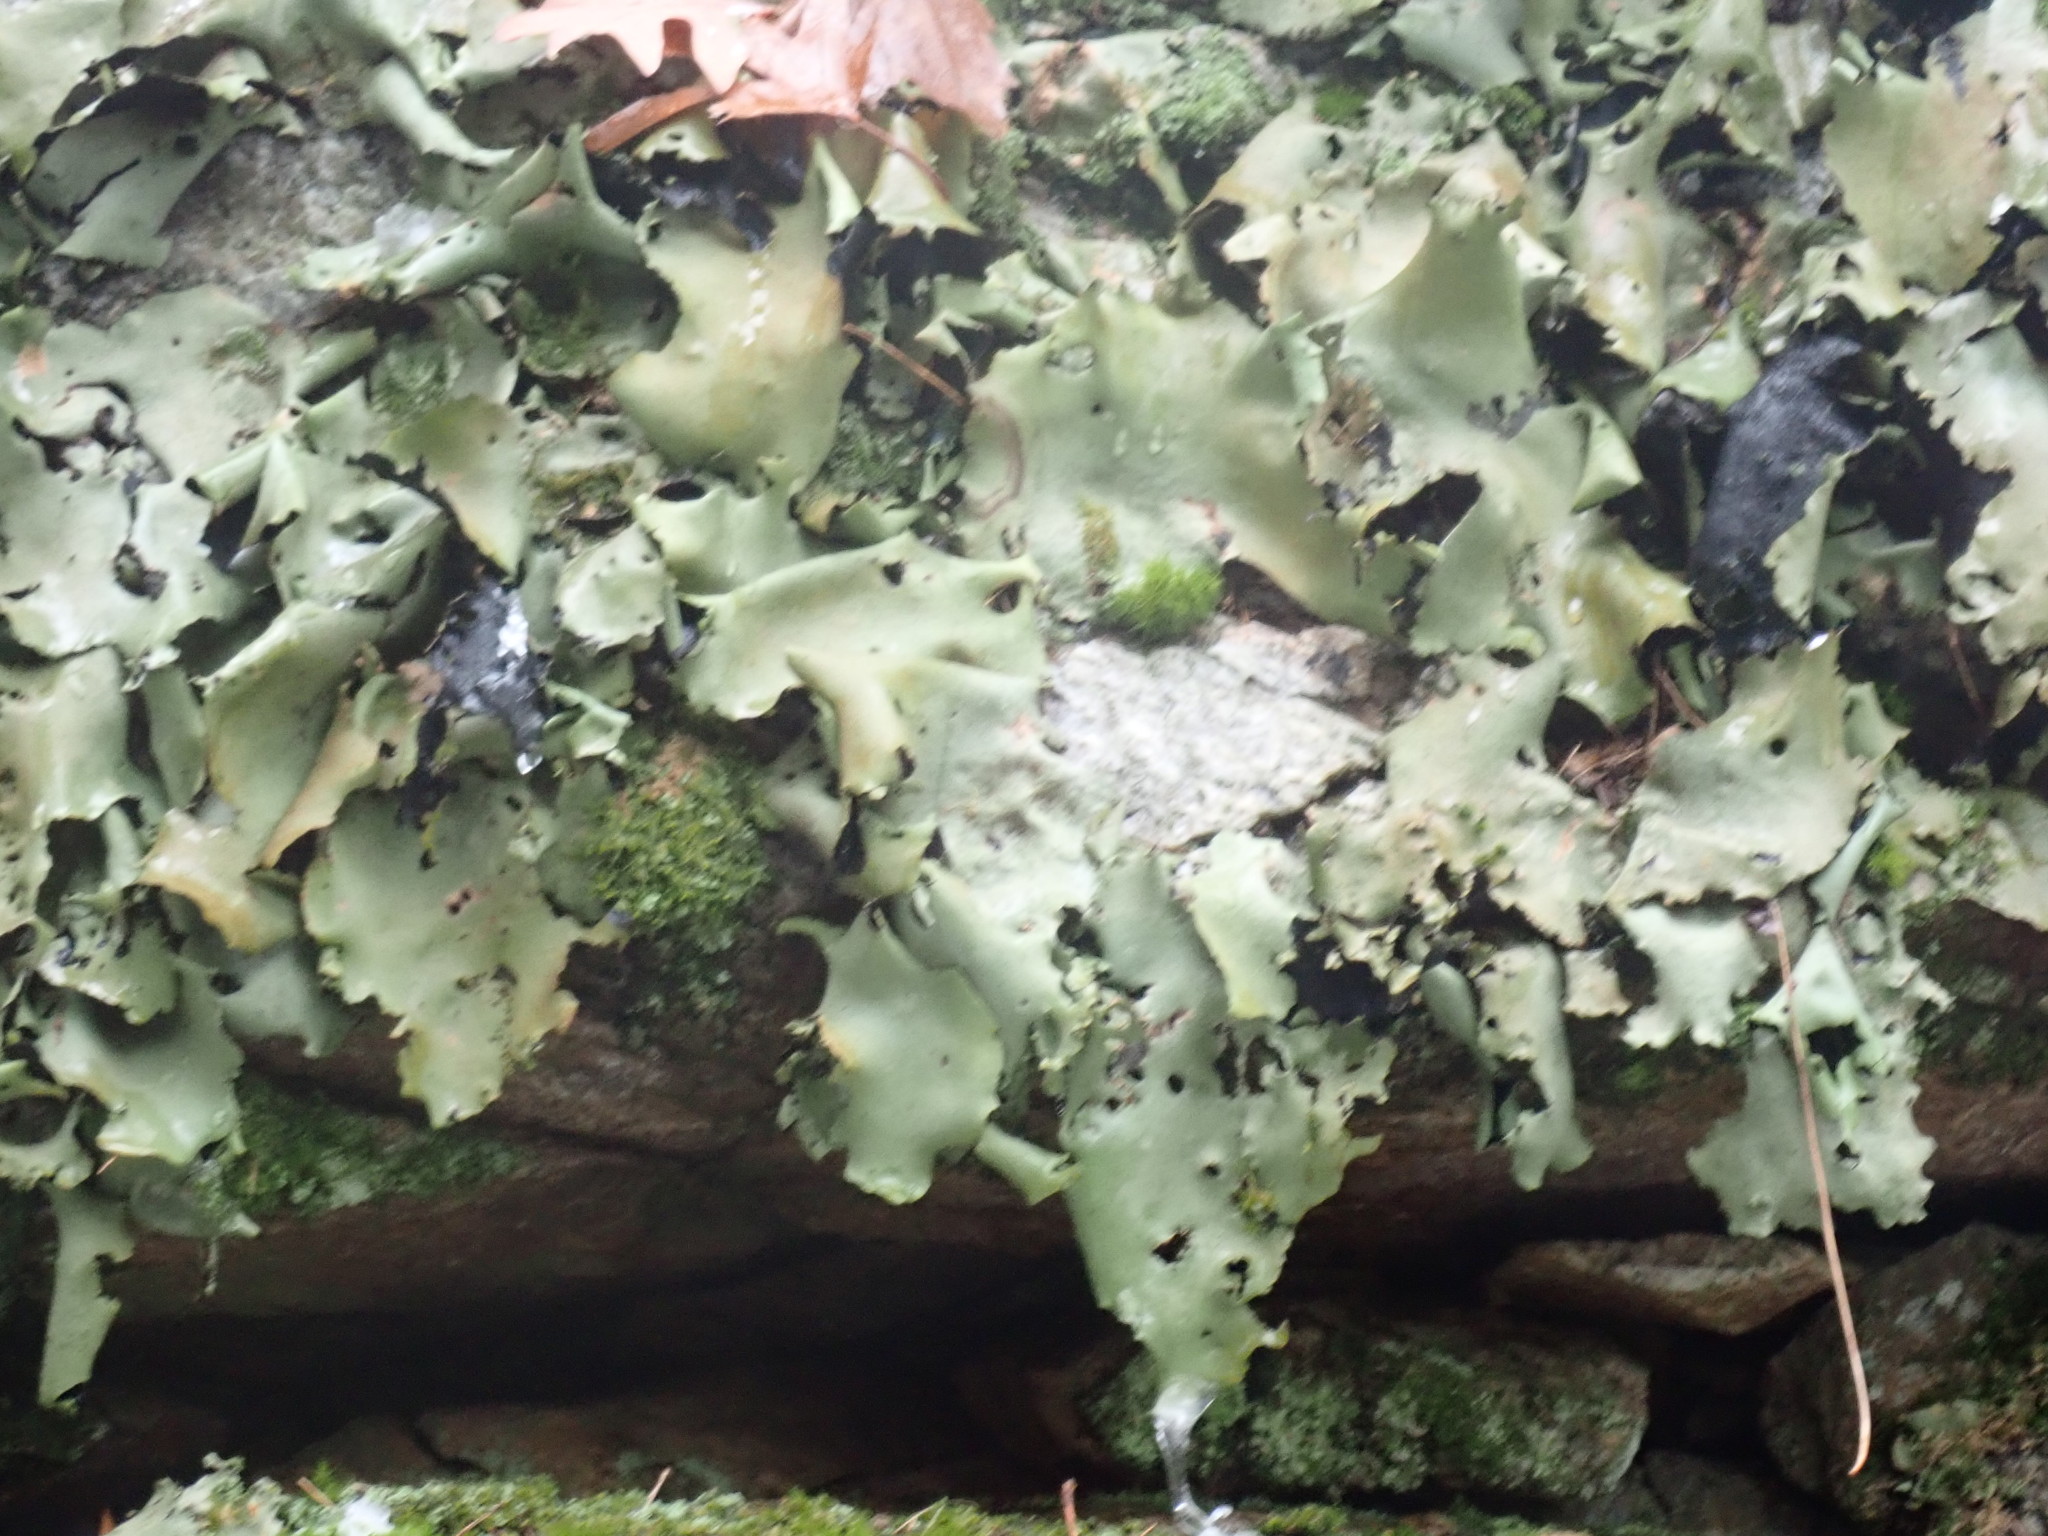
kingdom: Fungi
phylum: Ascomycota
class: Lecanoromycetes
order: Umbilicariales
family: Umbilicariaceae
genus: Umbilicaria
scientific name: Umbilicaria mammulata
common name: Smooth rock tripe
